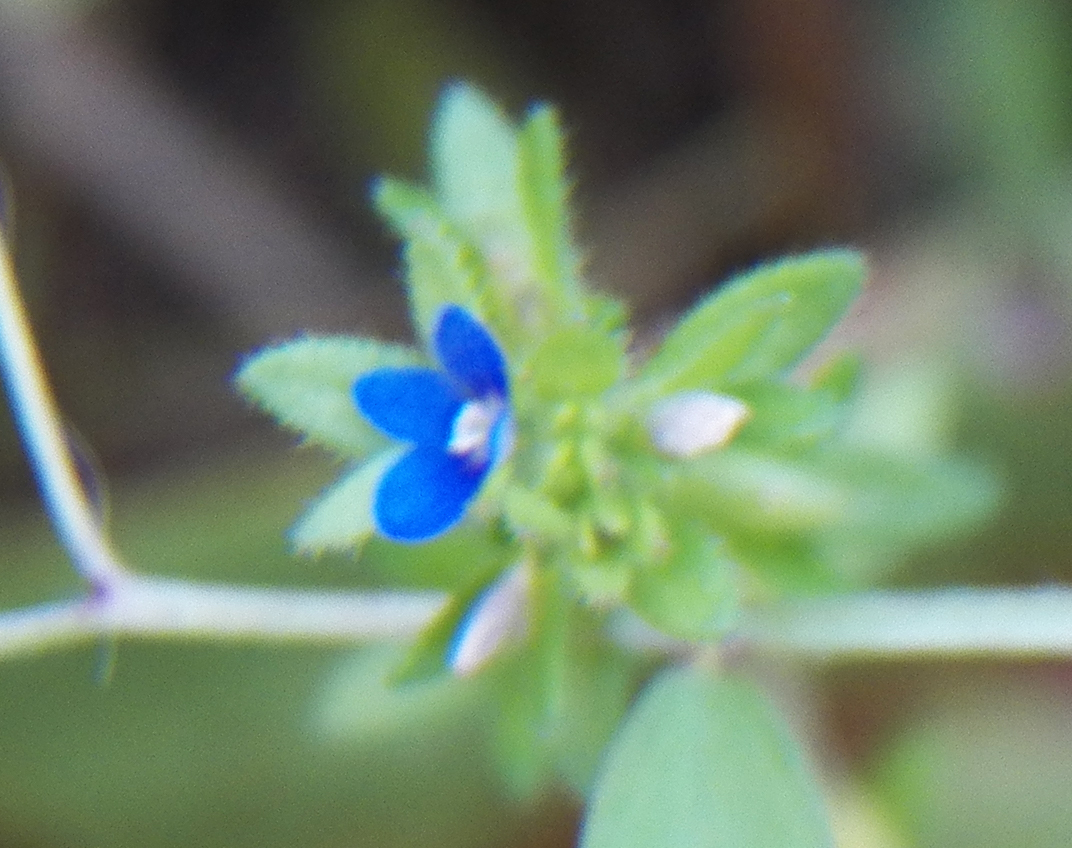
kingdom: Plantae
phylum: Tracheophyta
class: Magnoliopsida
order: Lamiales
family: Plantaginaceae
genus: Veronica
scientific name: Veronica arvensis
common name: Corn speedwell
